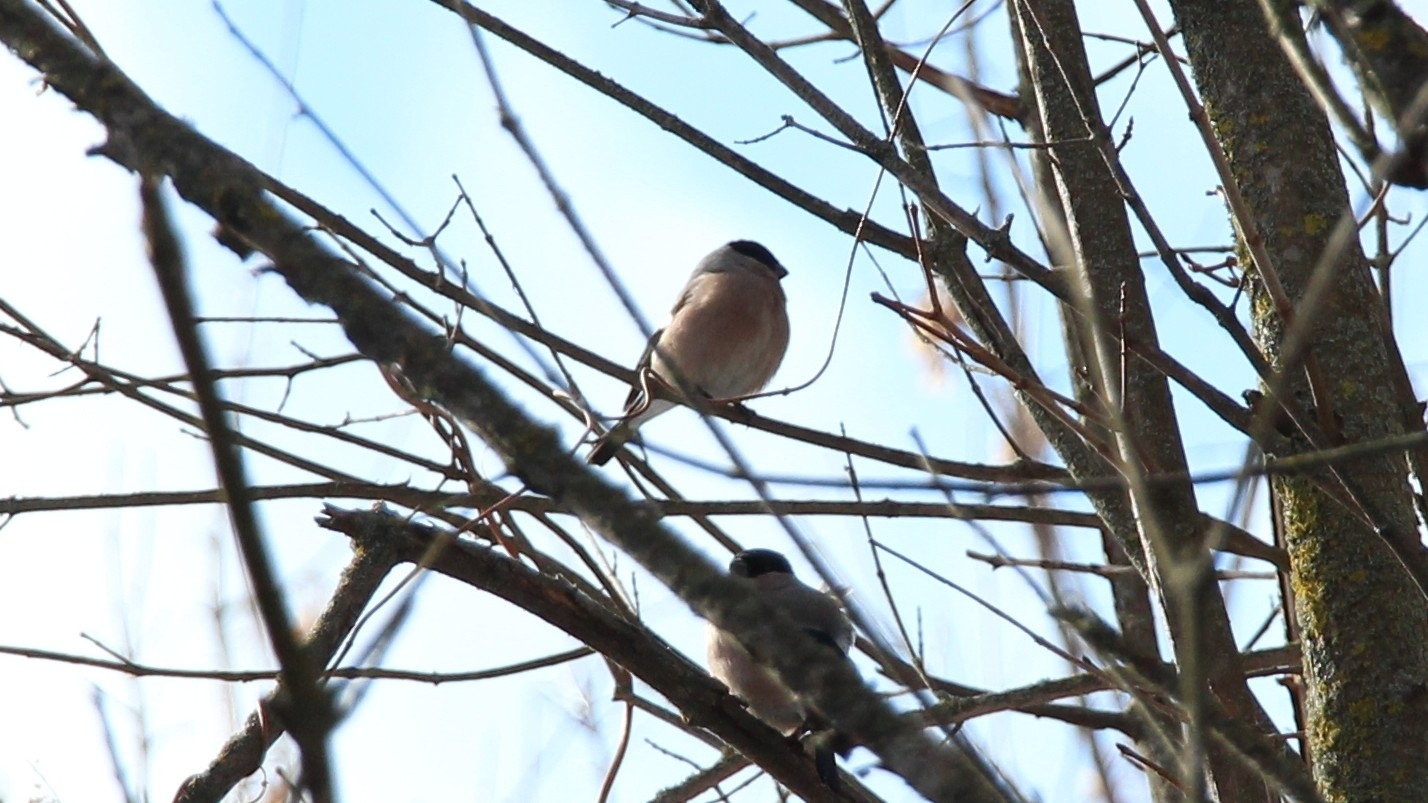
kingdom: Animalia
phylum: Chordata
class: Aves
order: Passeriformes
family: Fringillidae
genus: Pyrrhula
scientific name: Pyrrhula pyrrhula
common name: Eurasian bullfinch
